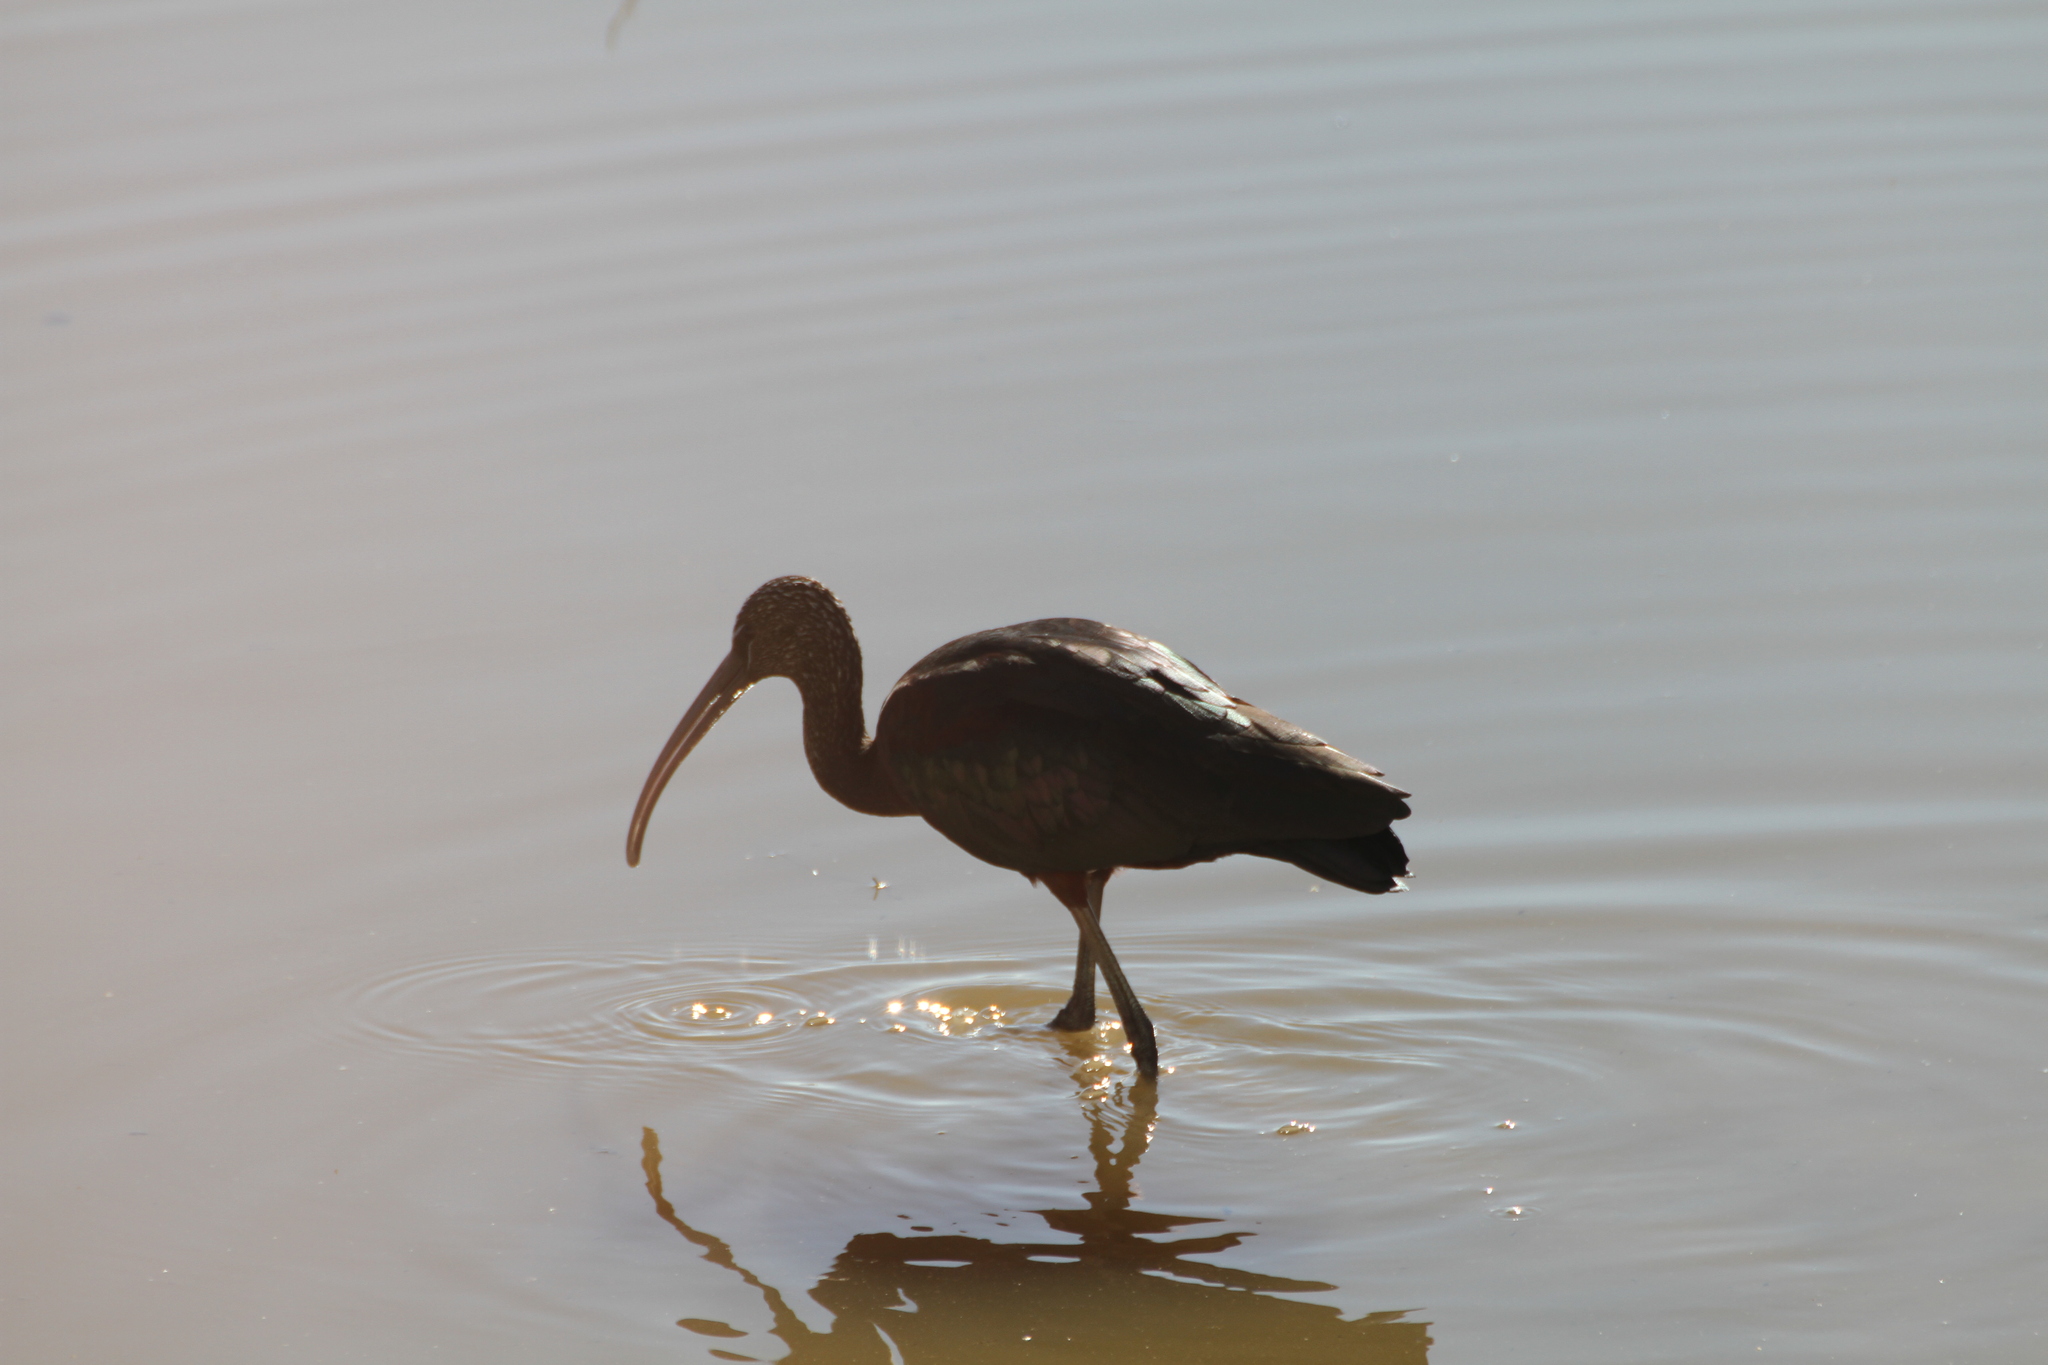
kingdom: Animalia
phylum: Chordata
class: Aves
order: Pelecaniformes
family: Threskiornithidae
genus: Plegadis
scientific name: Plegadis falcinellus
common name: Glossy ibis
